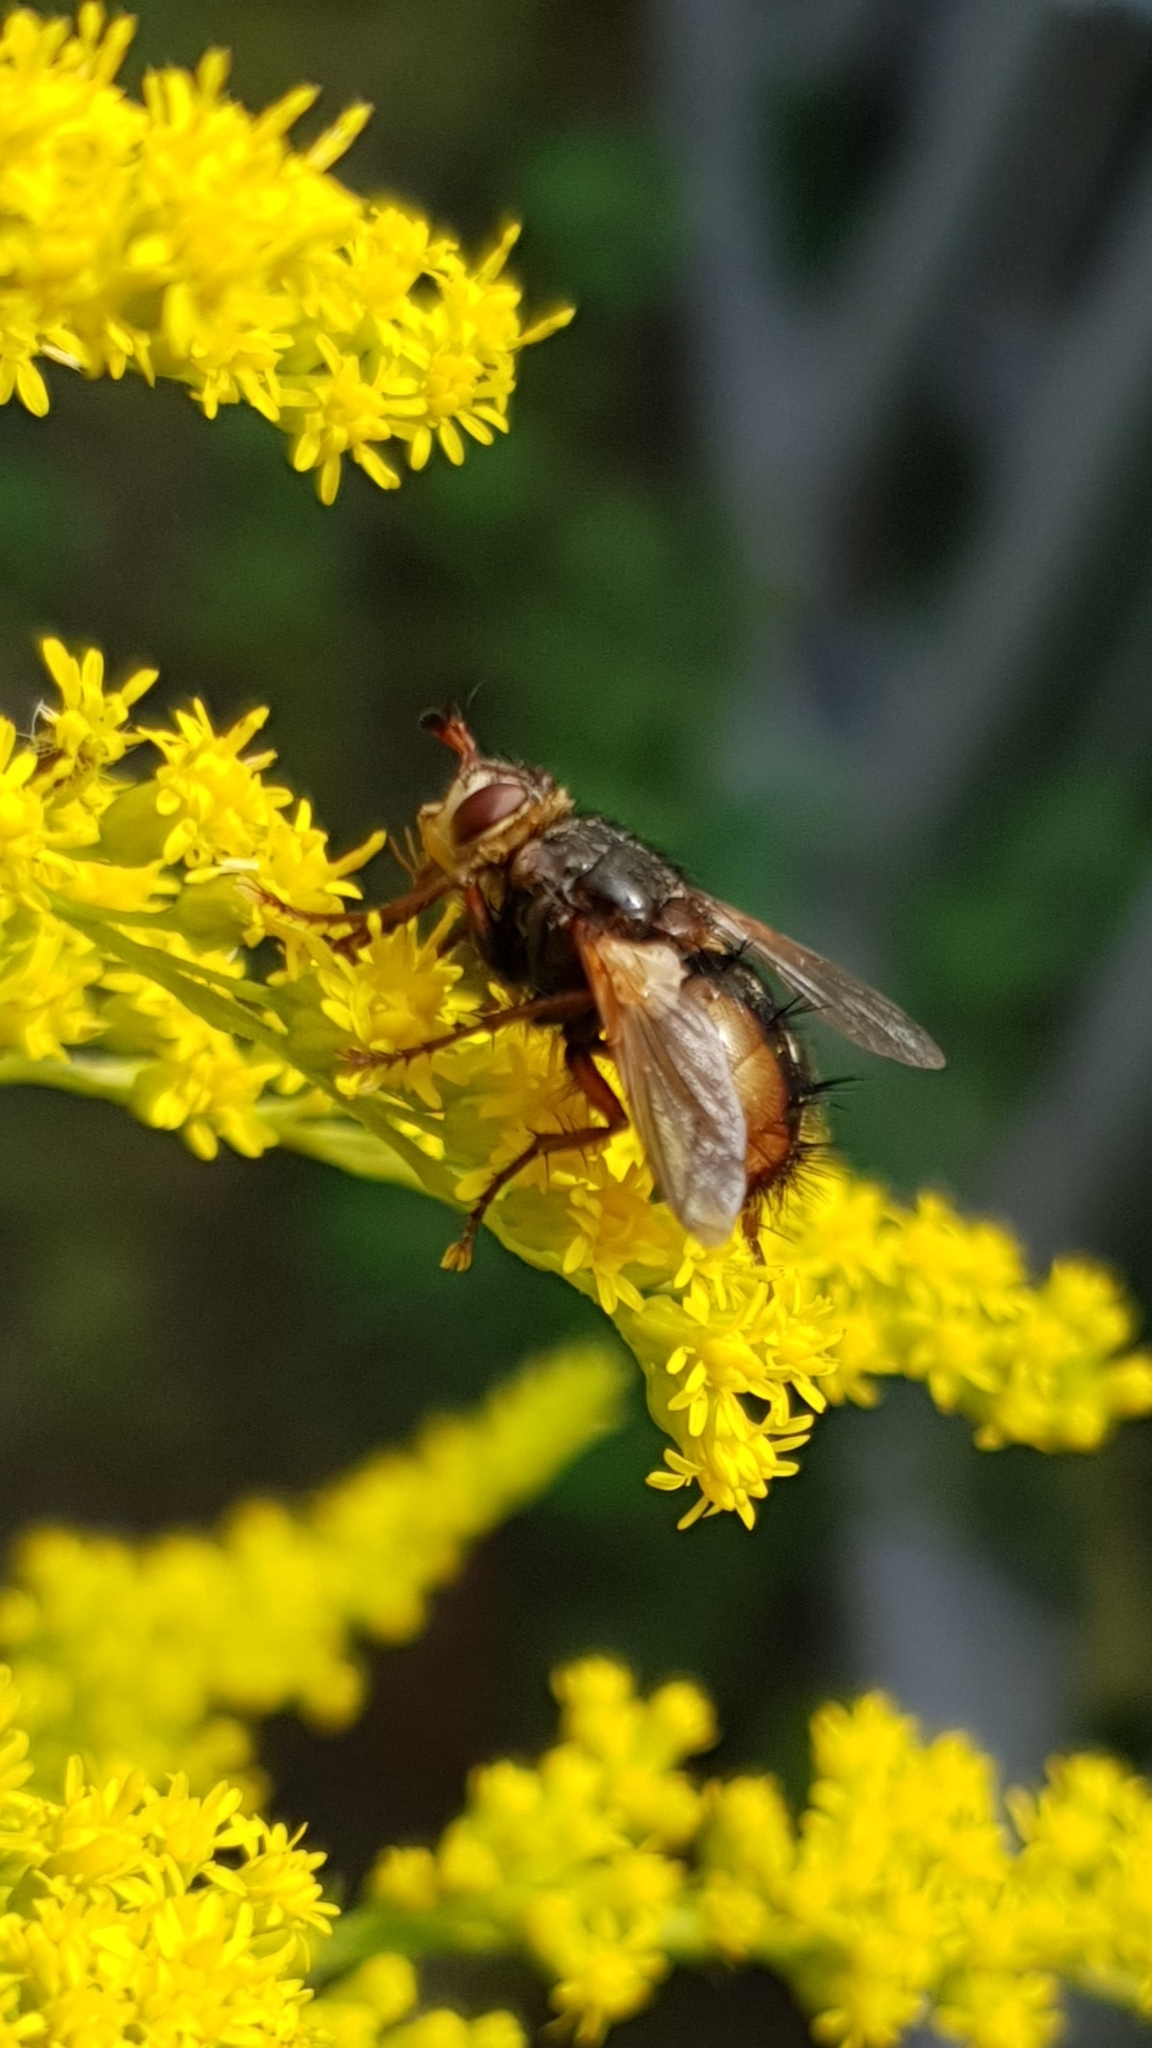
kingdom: Animalia
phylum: Arthropoda
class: Insecta
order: Diptera
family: Tachinidae
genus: Tachina
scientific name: Tachina fera
